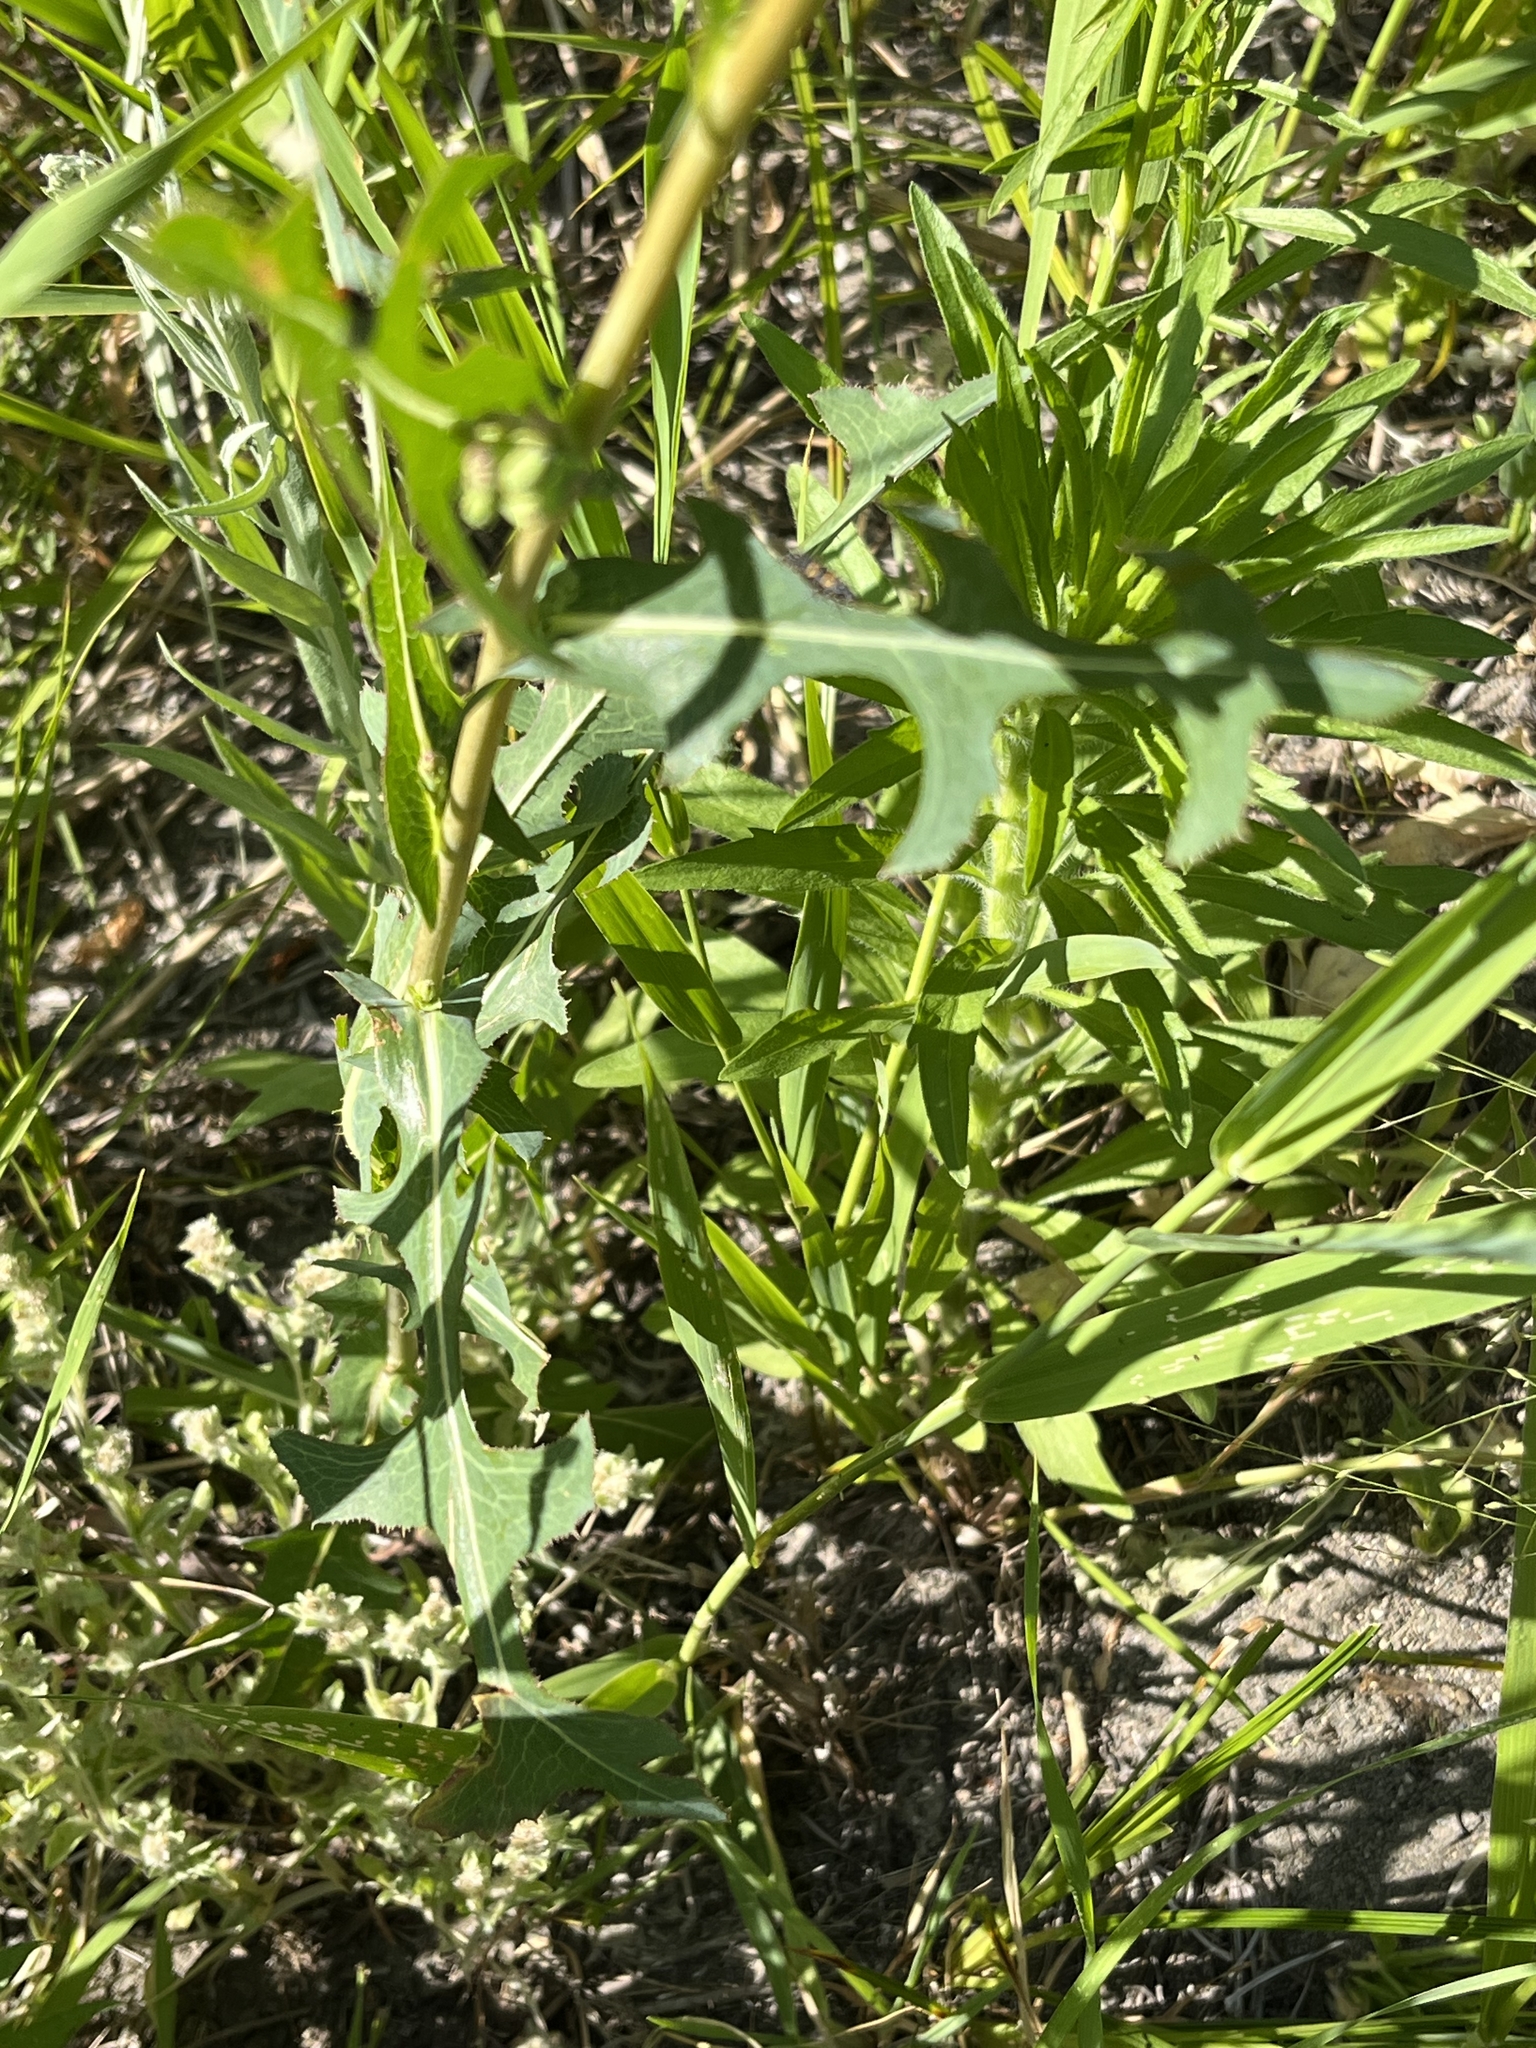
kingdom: Plantae
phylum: Tracheophyta
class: Magnoliopsida
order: Asterales
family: Asteraceae
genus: Lactuca
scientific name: Lactuca serriola
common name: Prickly lettuce
